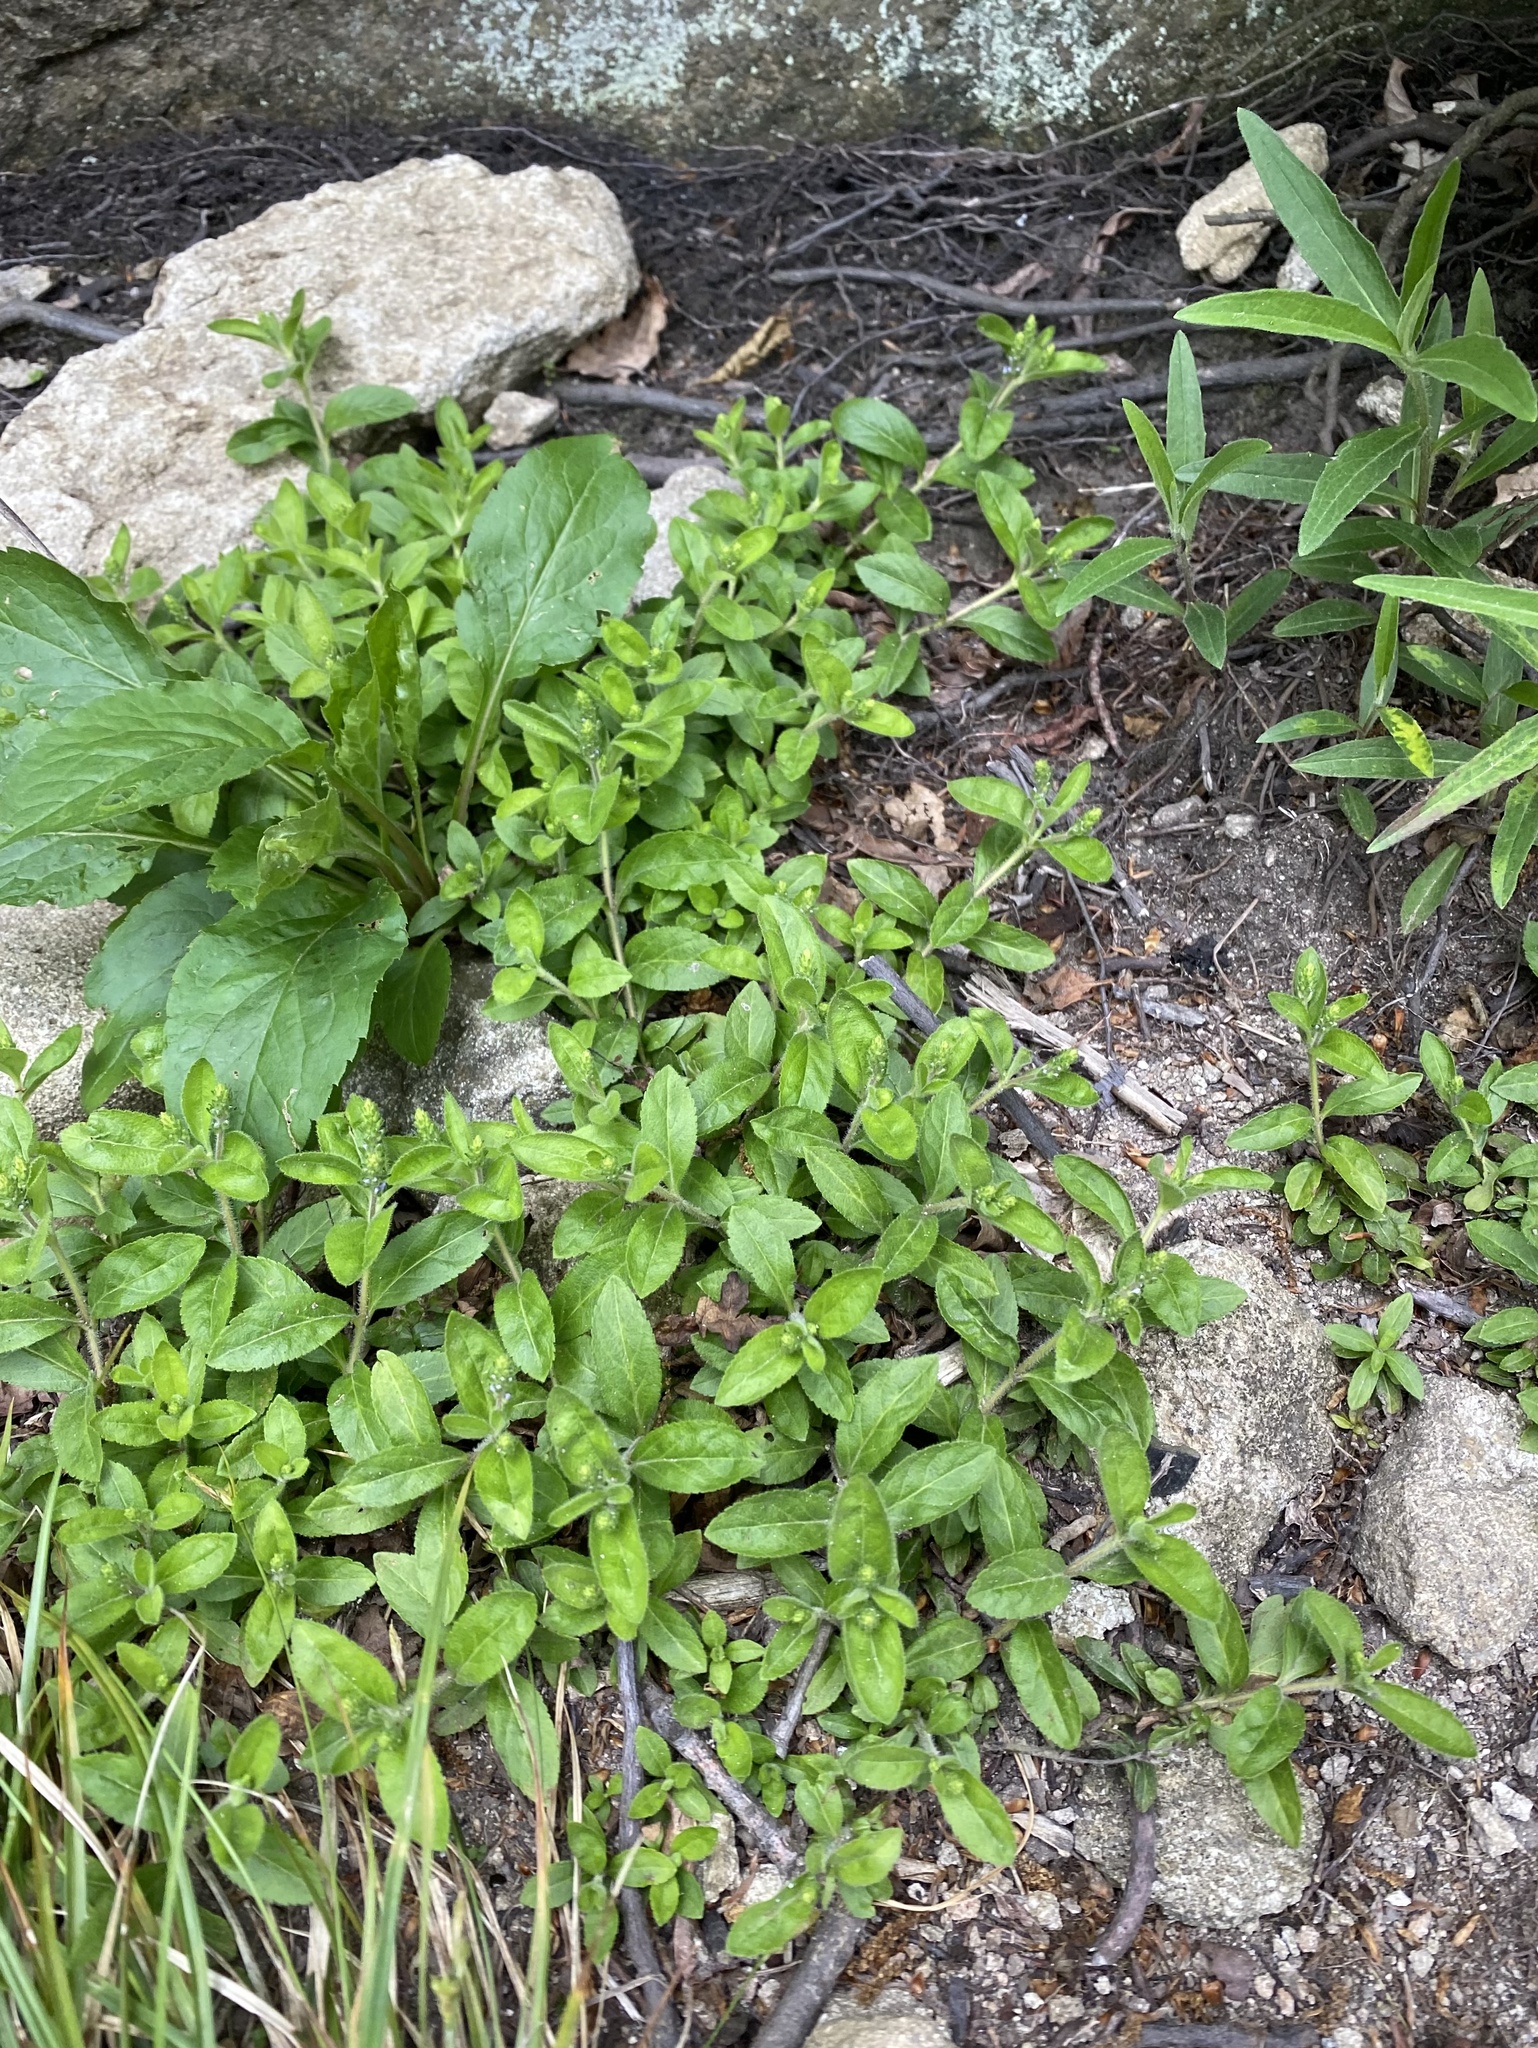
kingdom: Plantae
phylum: Tracheophyta
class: Magnoliopsida
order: Lamiales
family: Plantaginaceae
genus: Veronica
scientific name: Veronica officinalis
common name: Common speedwell
